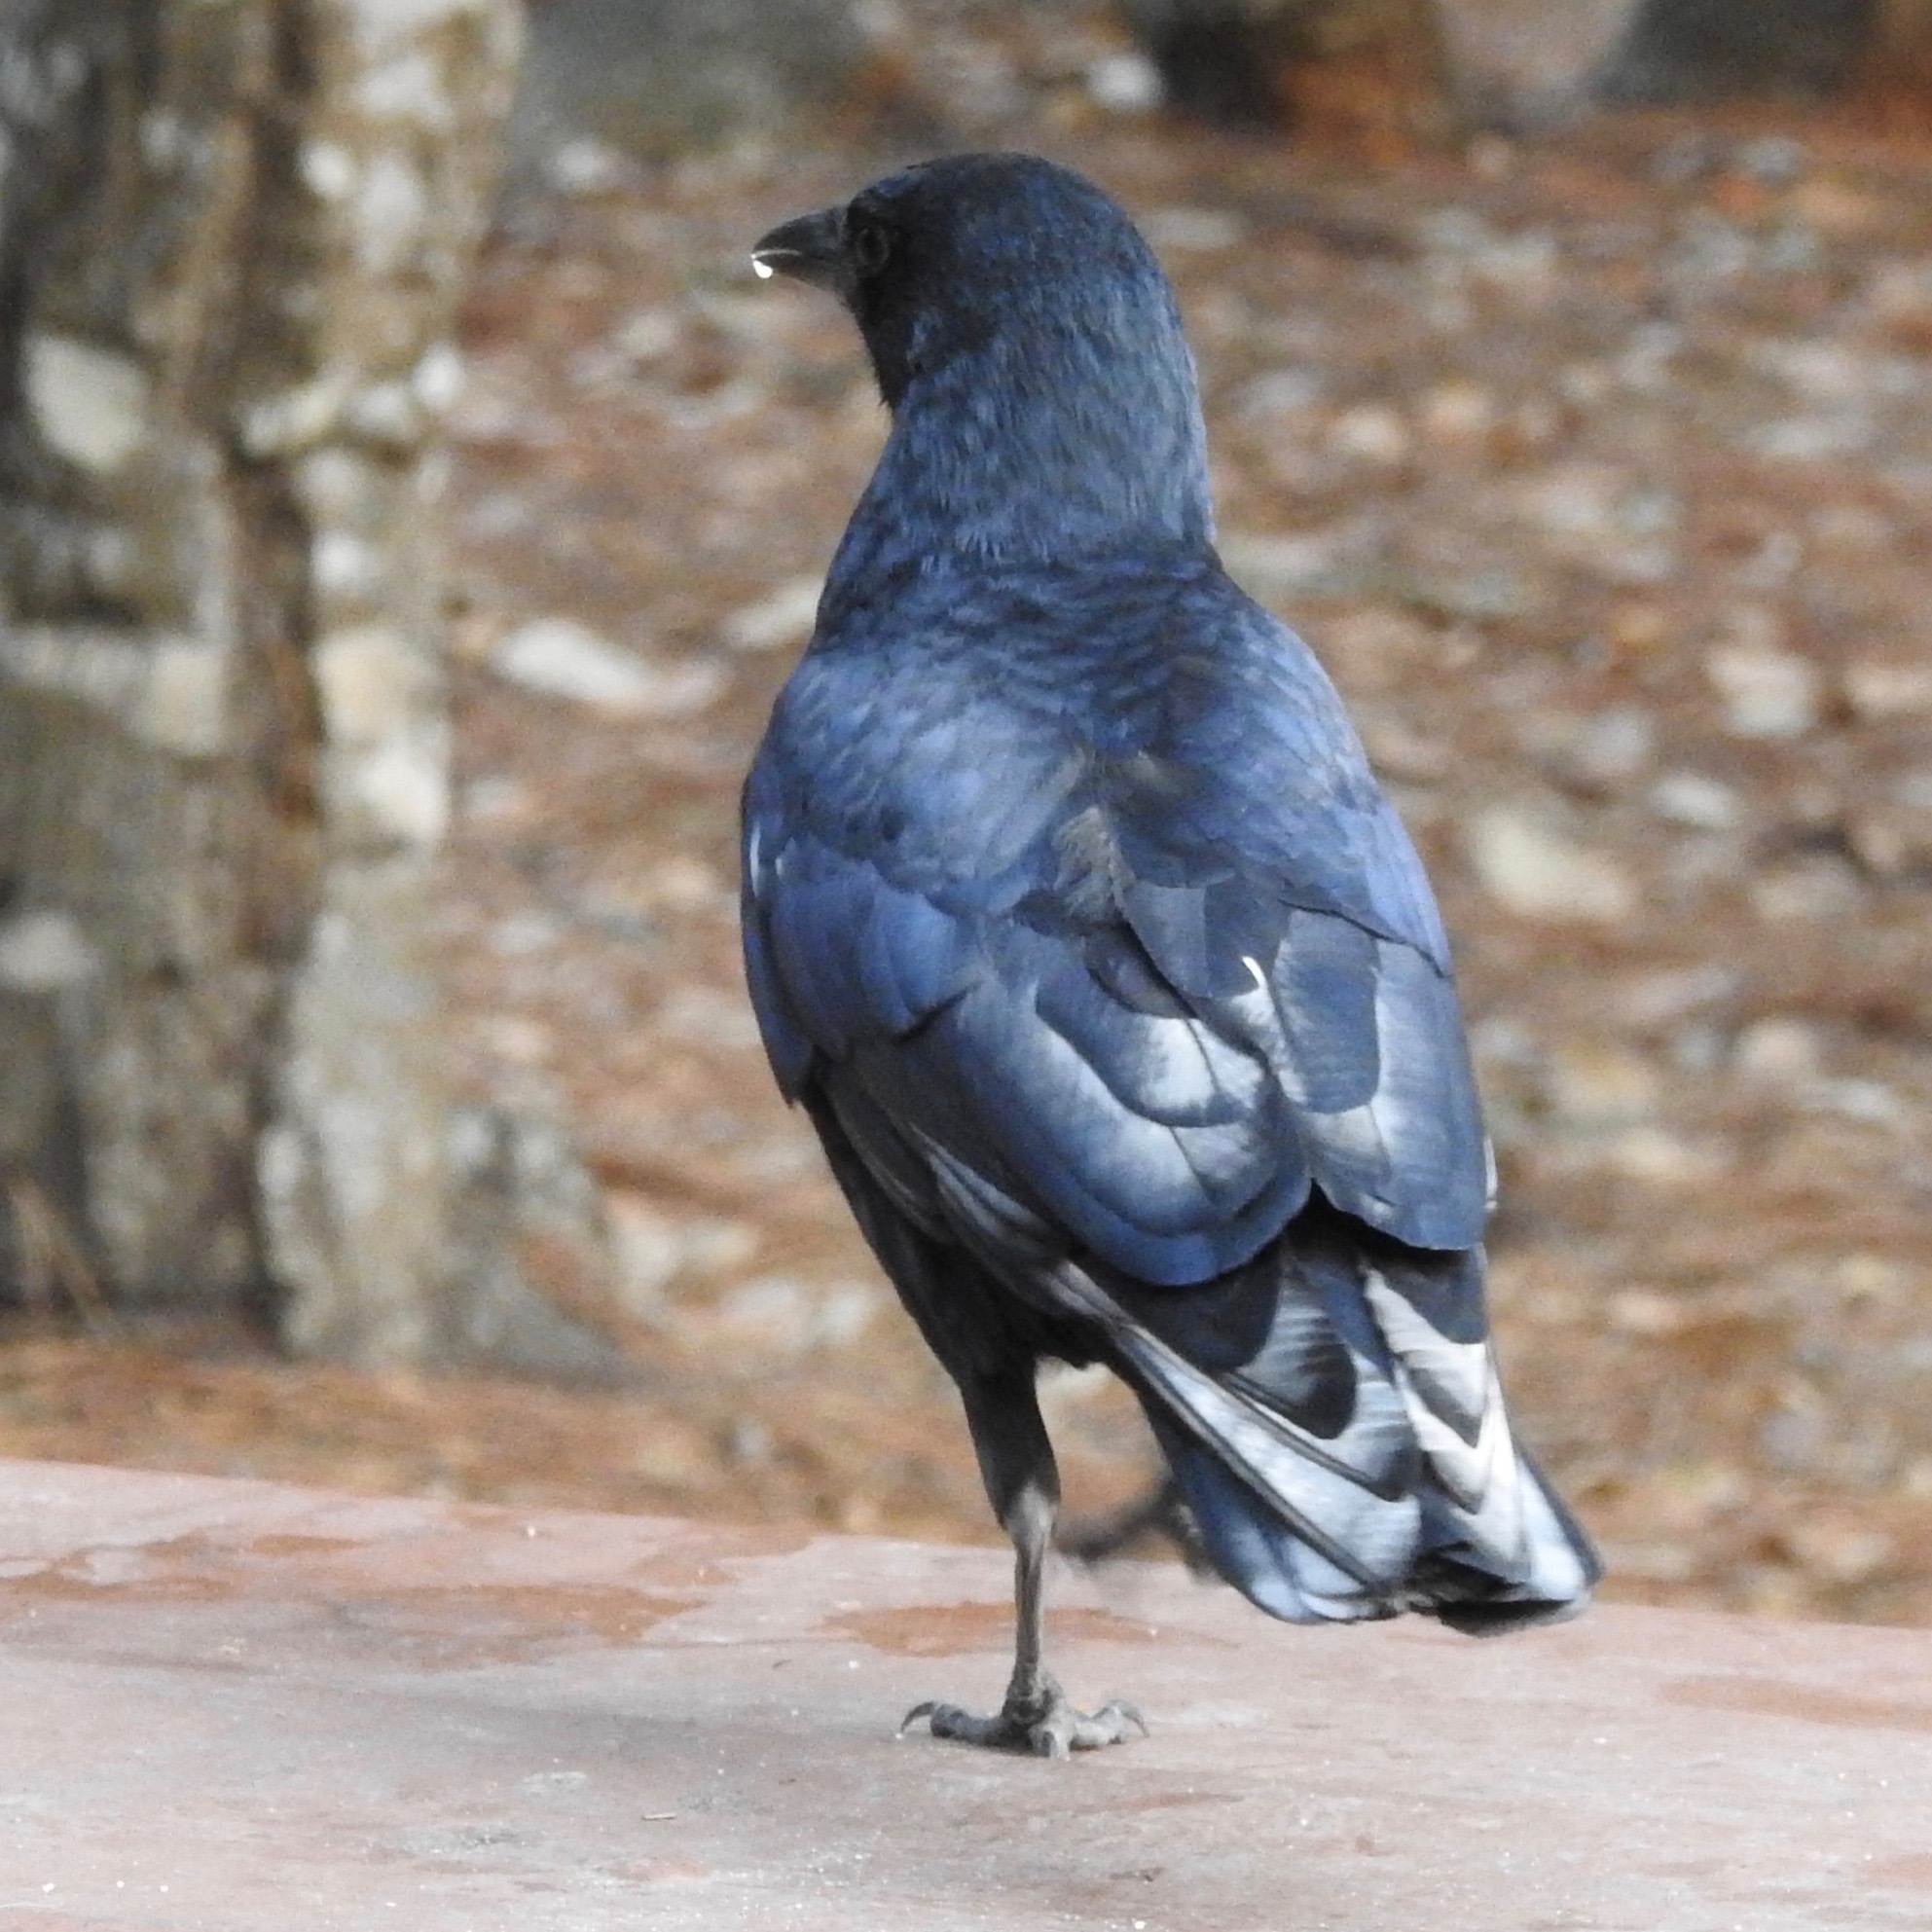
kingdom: Animalia
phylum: Chordata
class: Aves
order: Passeriformes
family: Corvidae
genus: Corvus
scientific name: Corvus brachyrhynchos
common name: American crow
